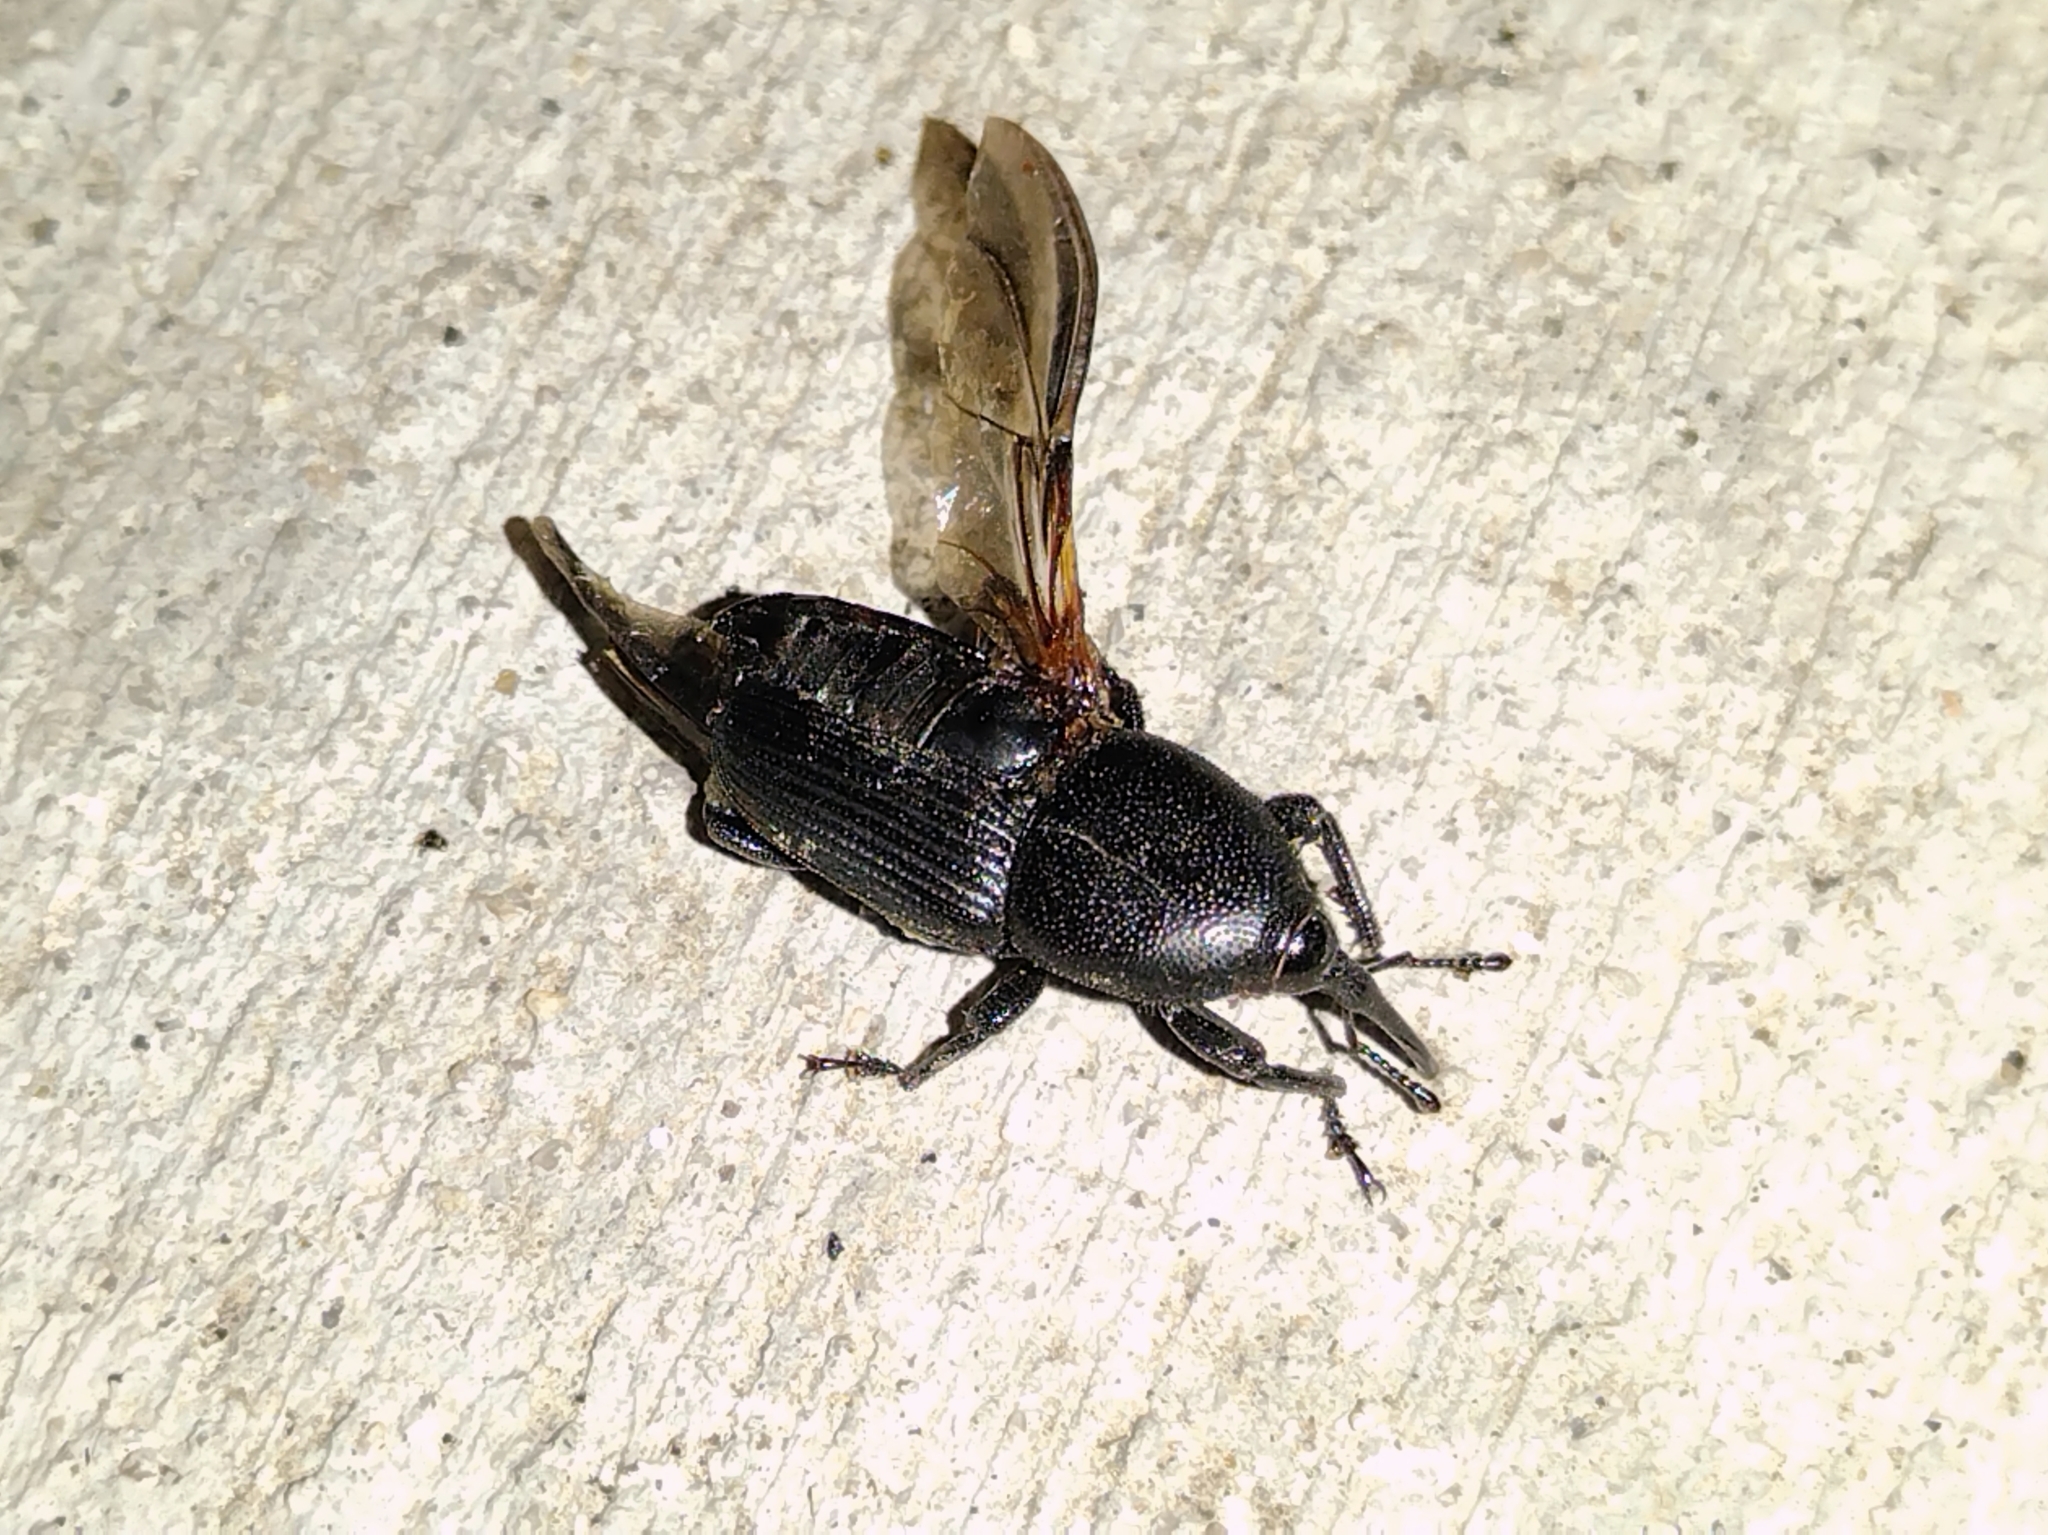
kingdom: Animalia
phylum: Arthropoda
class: Insecta
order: Coleoptera
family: Dryophthoridae
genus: Scyphophorus
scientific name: Scyphophorus yuccae
